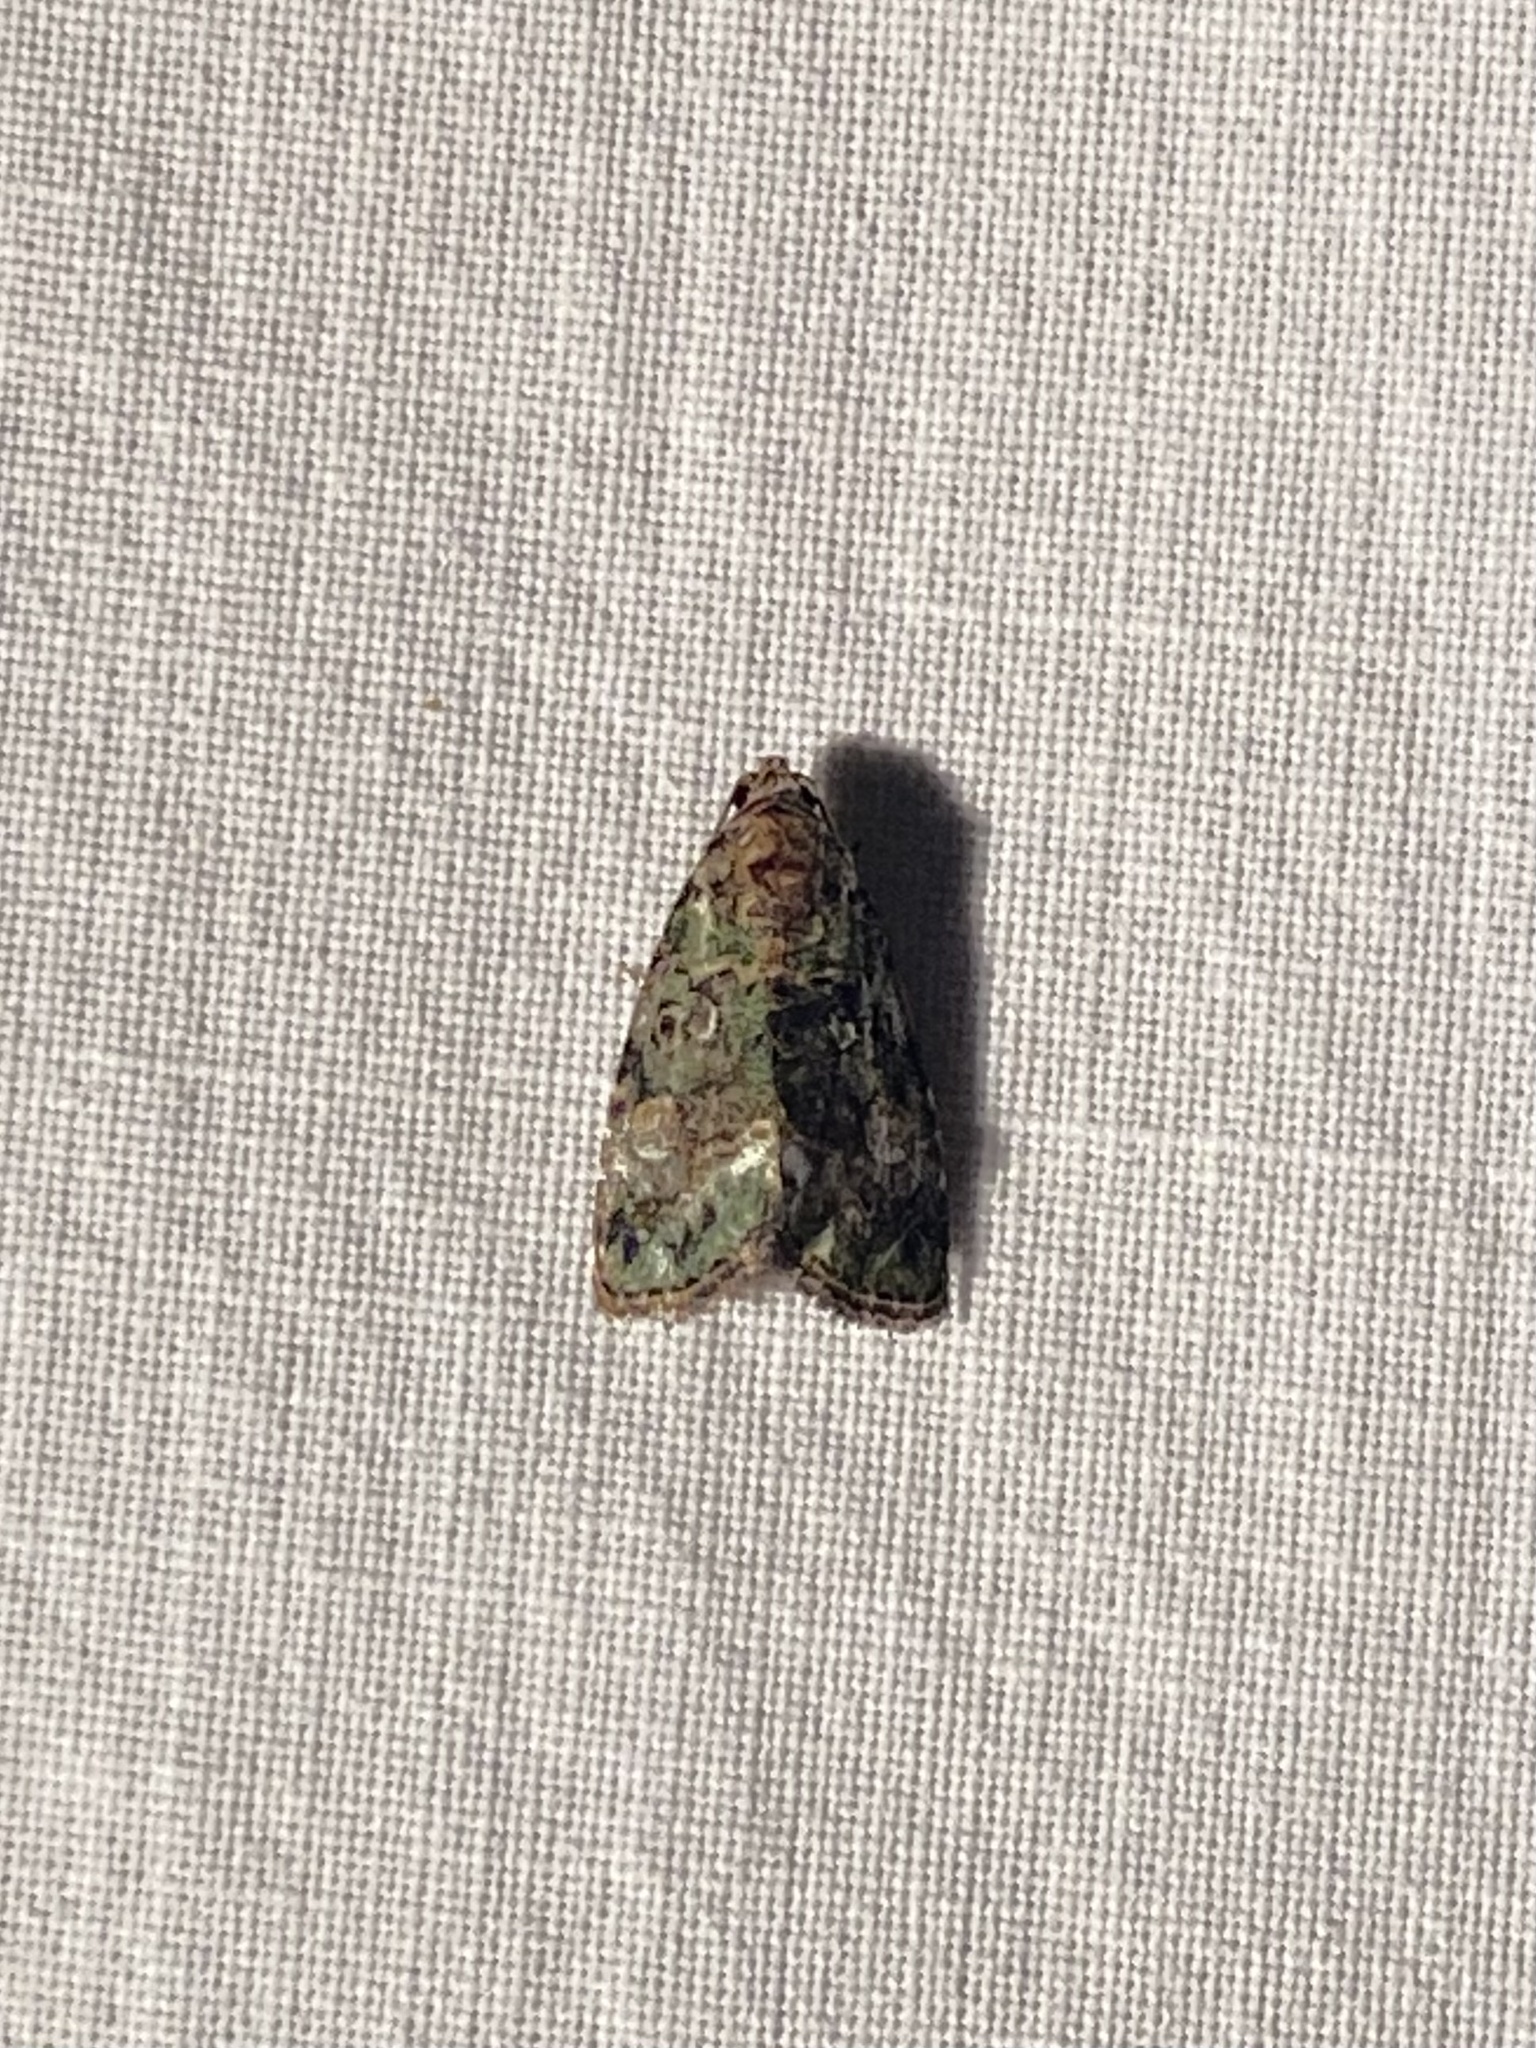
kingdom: Animalia
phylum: Arthropoda
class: Insecta
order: Lepidoptera
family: Noctuidae
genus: Lithacodia
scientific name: Lithacodia musta
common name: Small mossy glyph
